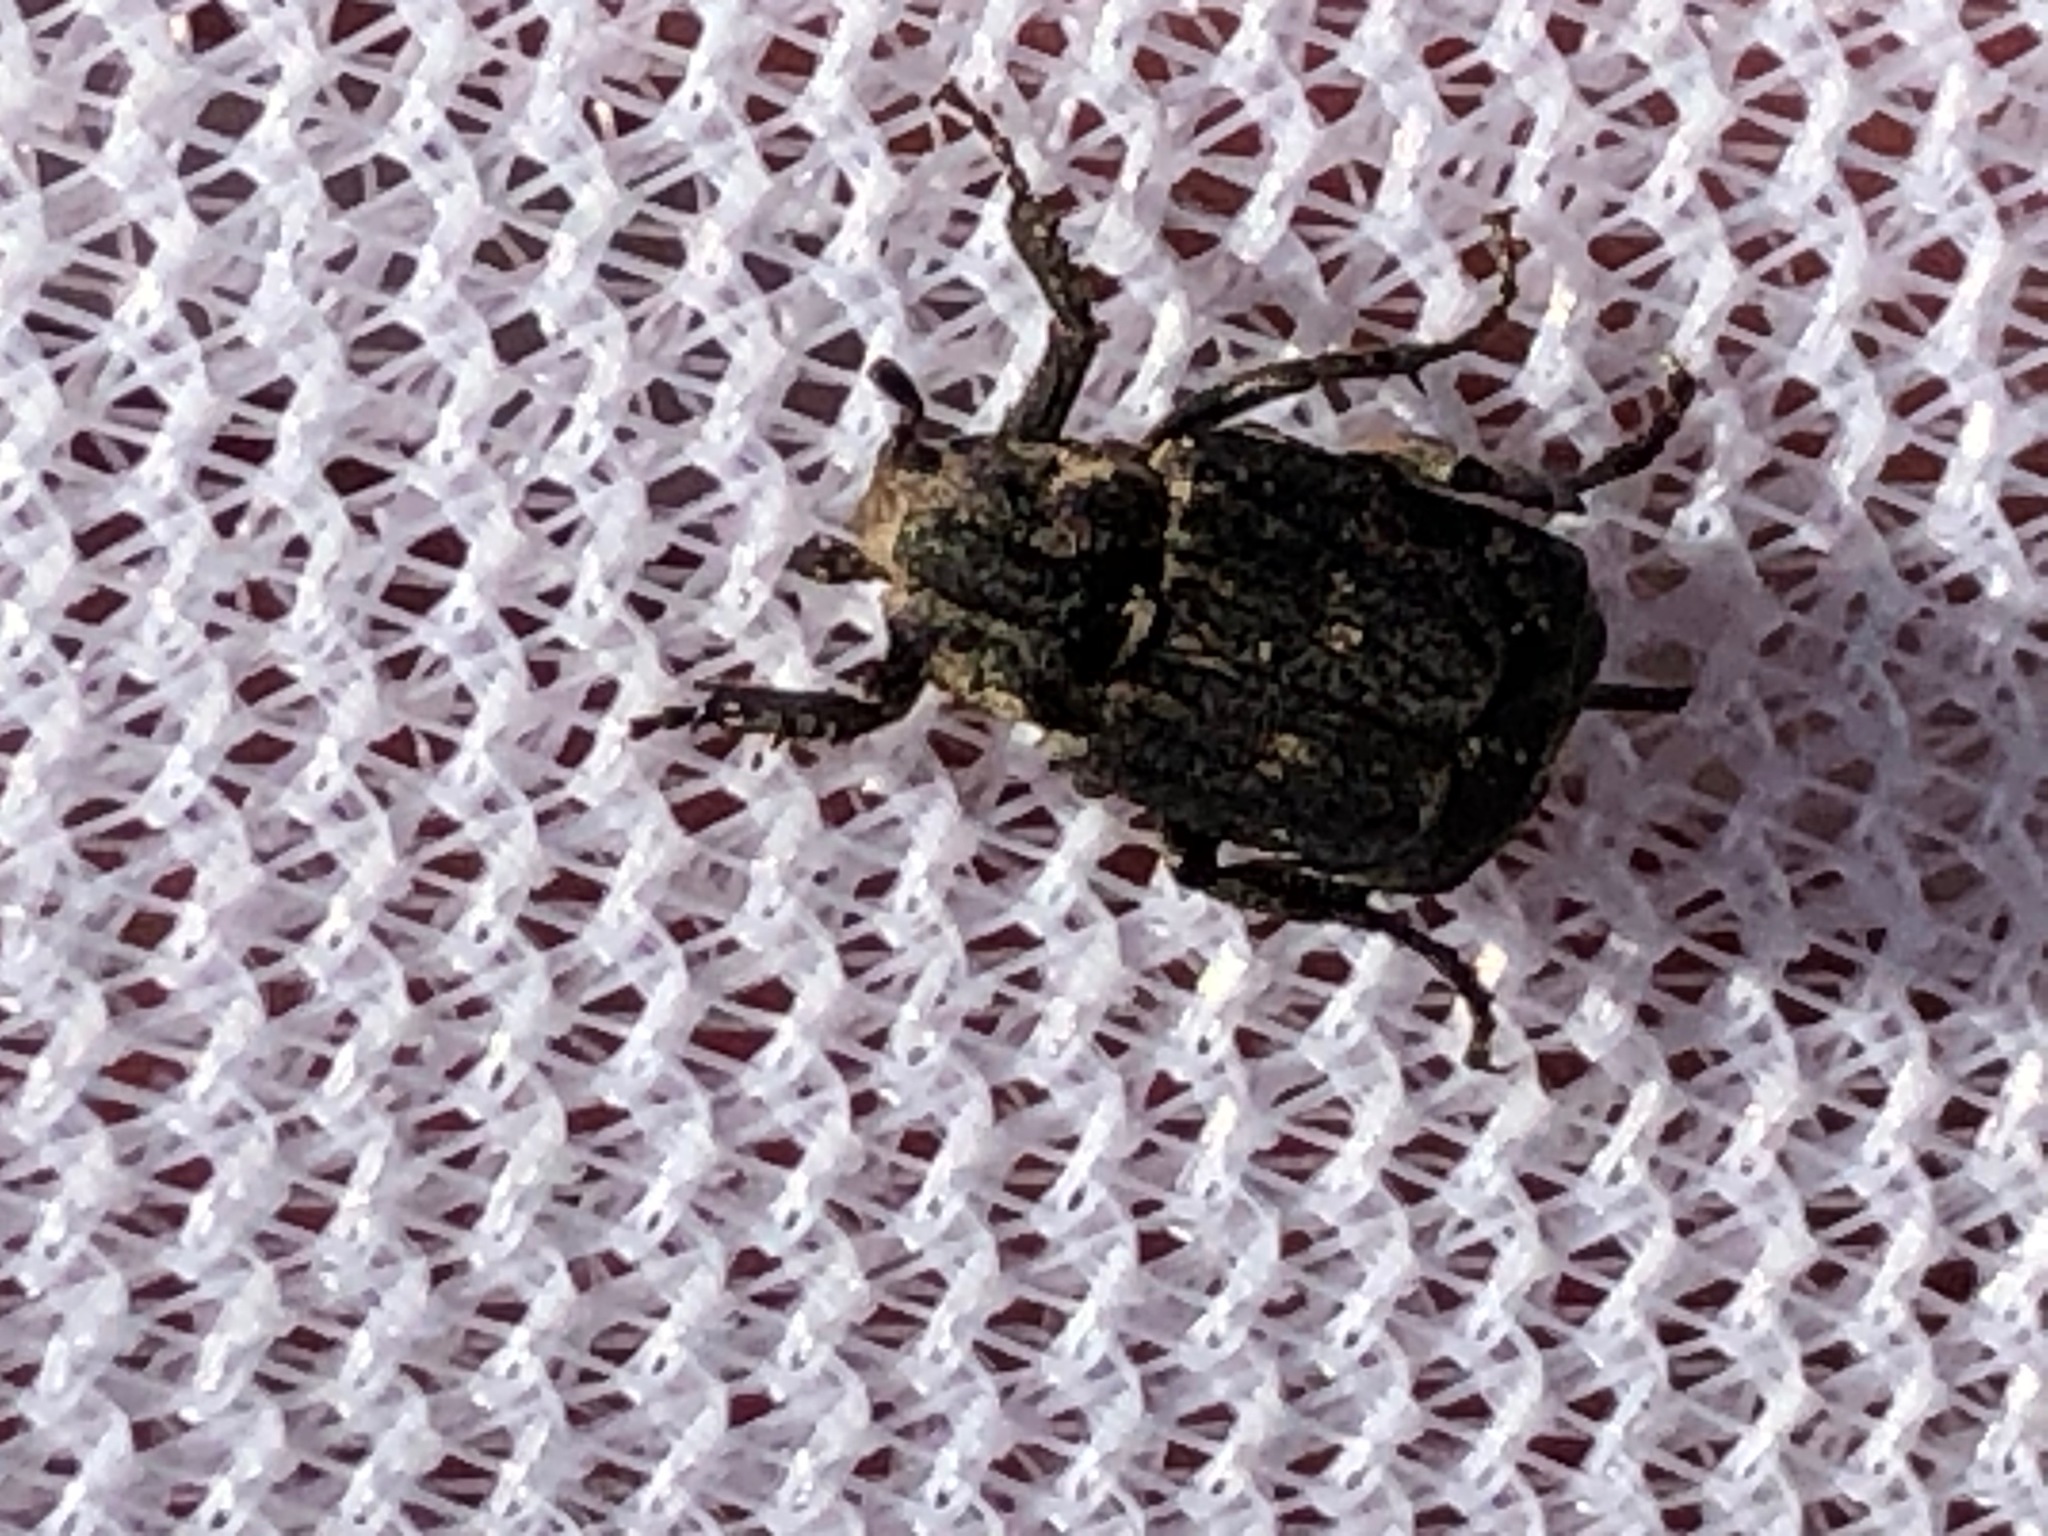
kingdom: Animalia
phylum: Arthropoda
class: Insecta
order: Coleoptera
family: Scarabaeidae
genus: Valgus
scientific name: Valgus hemipterus
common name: Bug flower chafer
